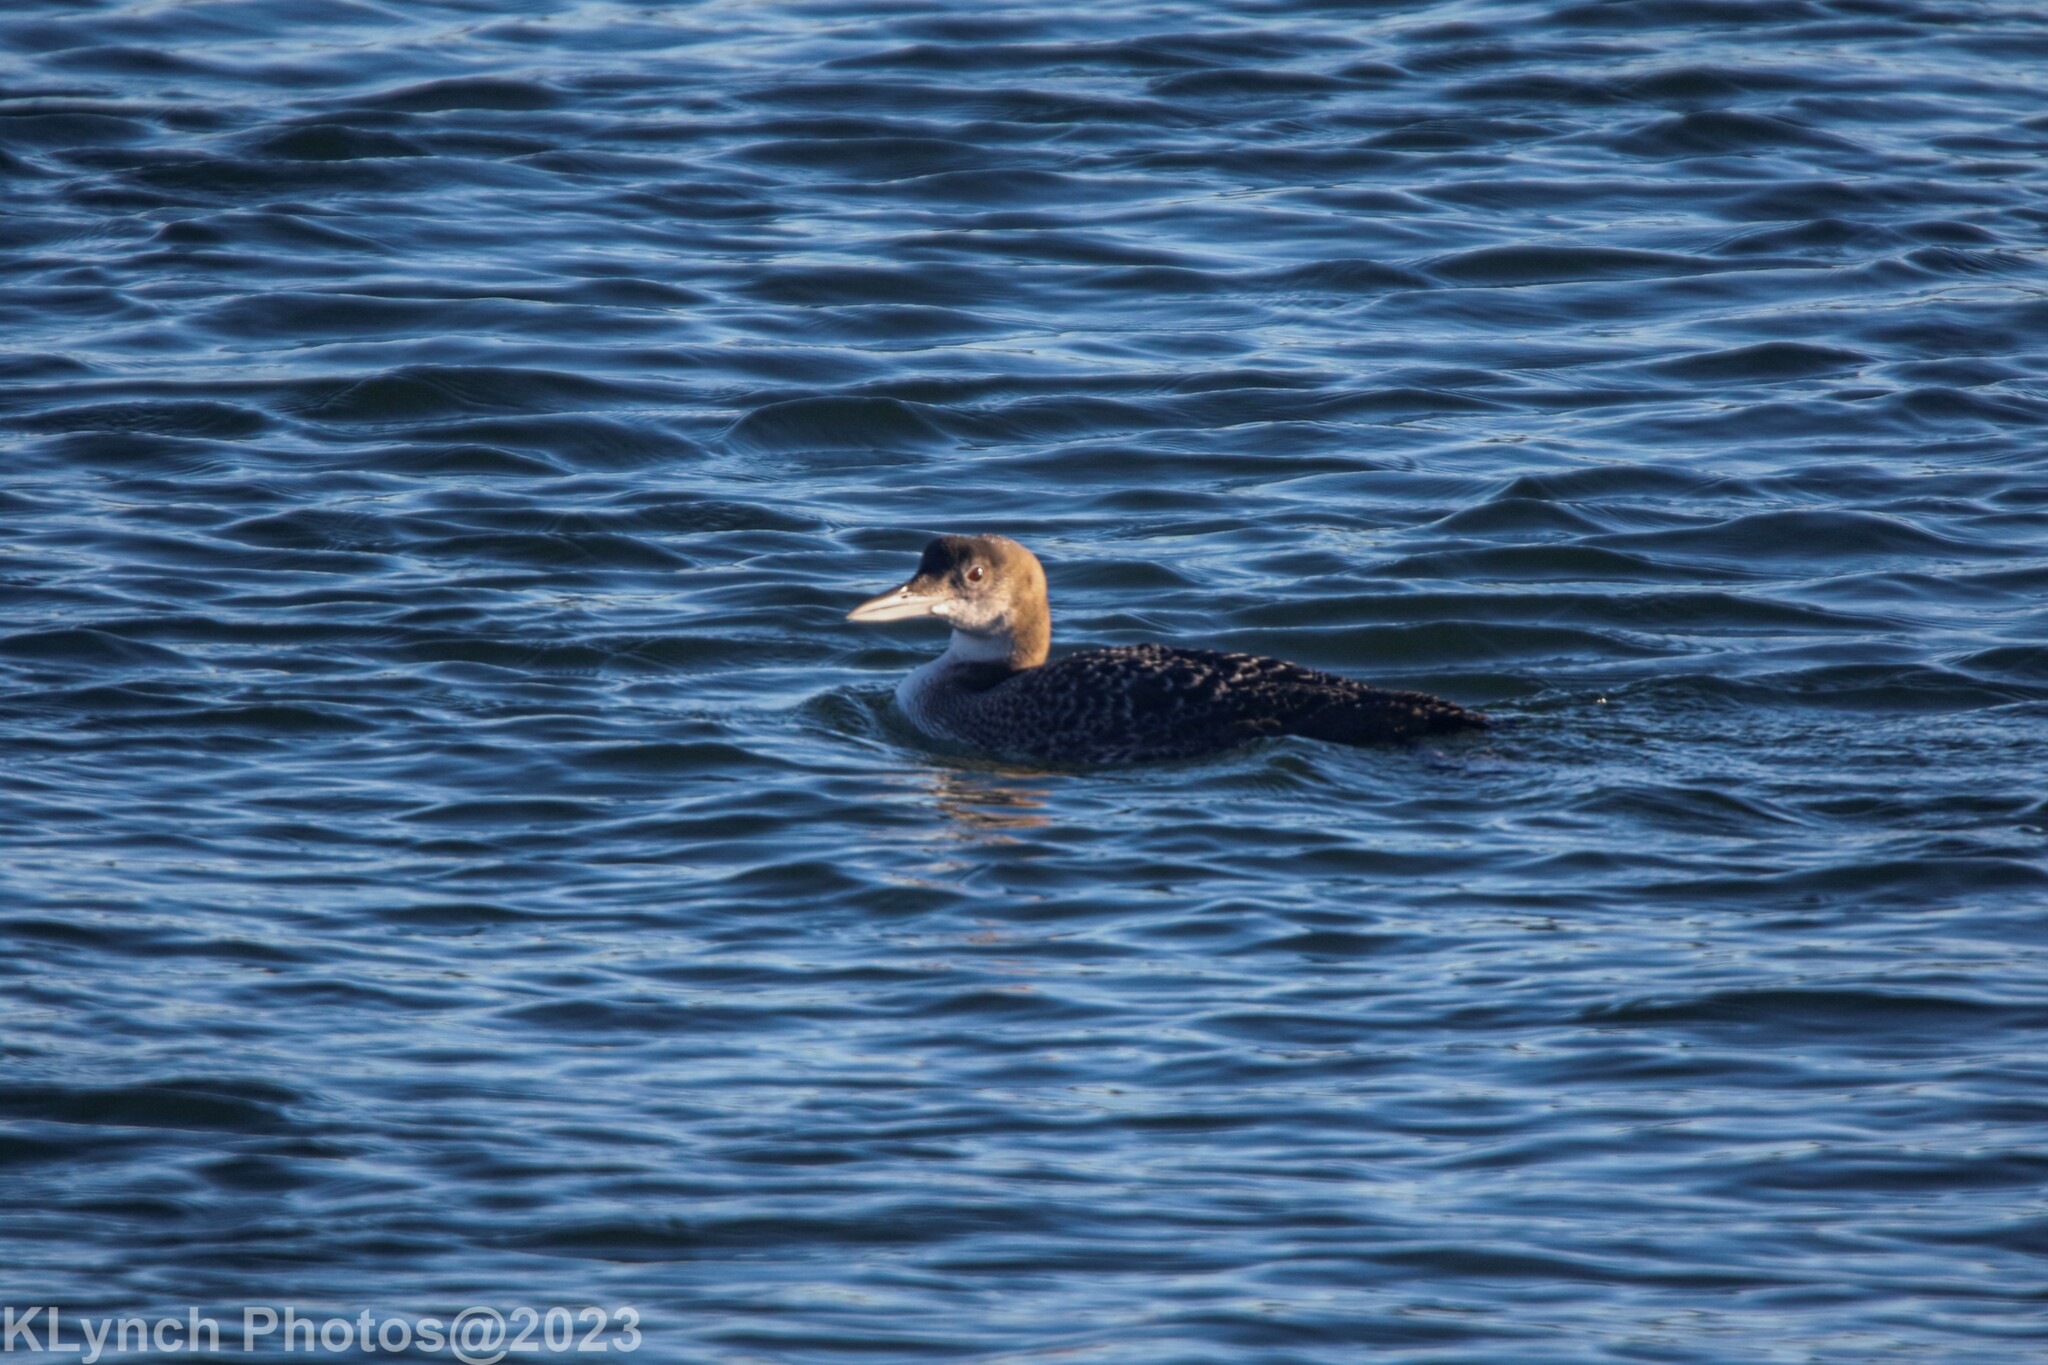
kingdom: Animalia
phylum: Chordata
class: Aves
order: Gaviiformes
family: Gaviidae
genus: Gavia
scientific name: Gavia immer
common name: Common loon
